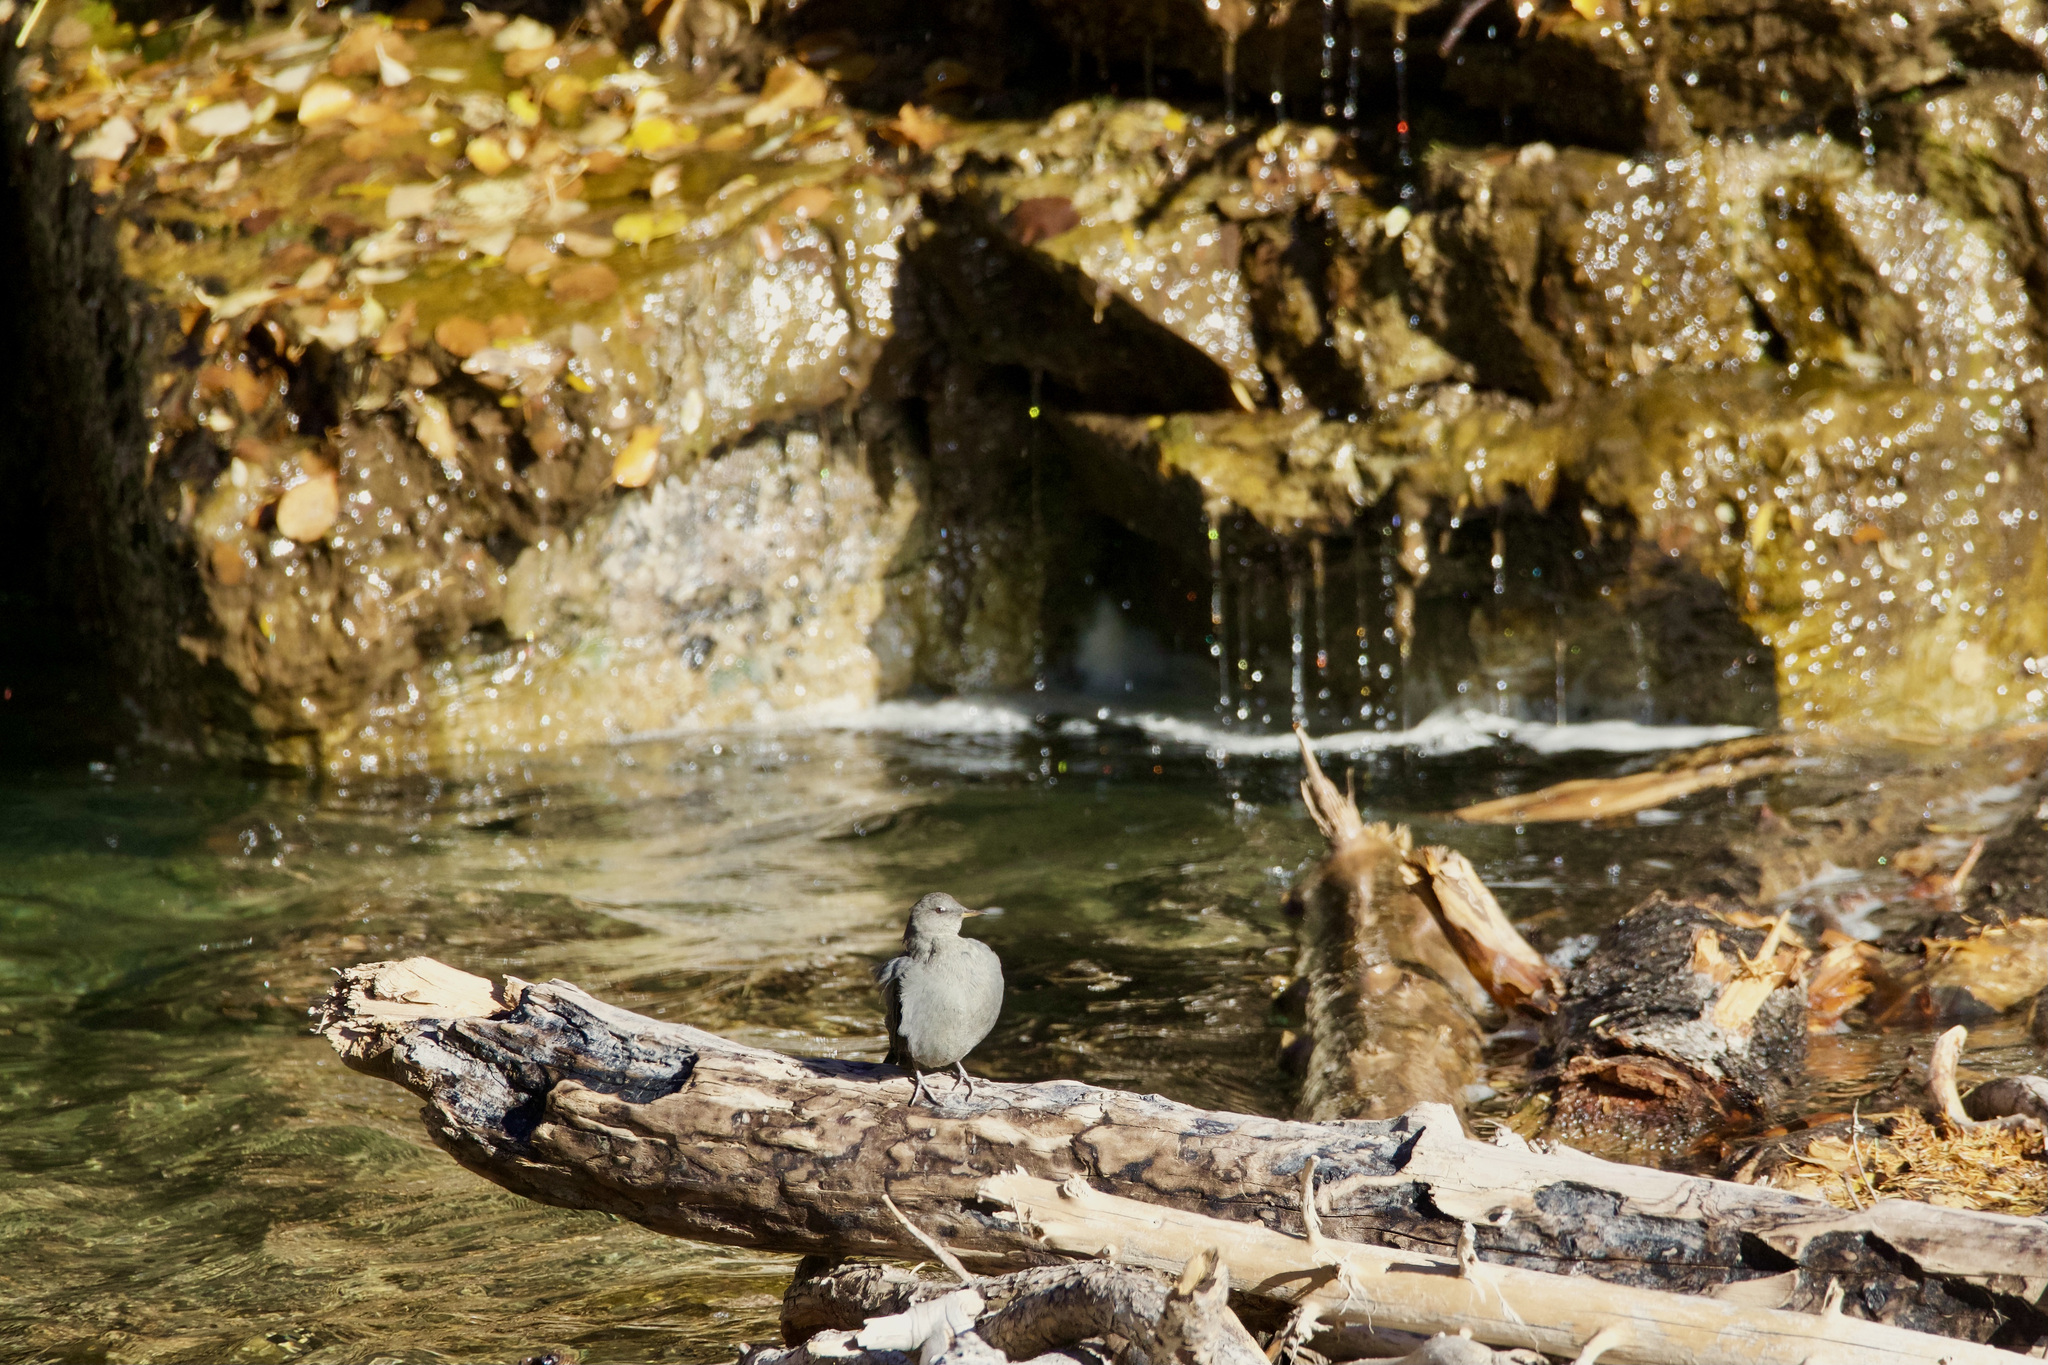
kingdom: Animalia
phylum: Chordata
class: Aves
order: Passeriformes
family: Cinclidae
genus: Cinclus
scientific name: Cinclus mexicanus
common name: American dipper
